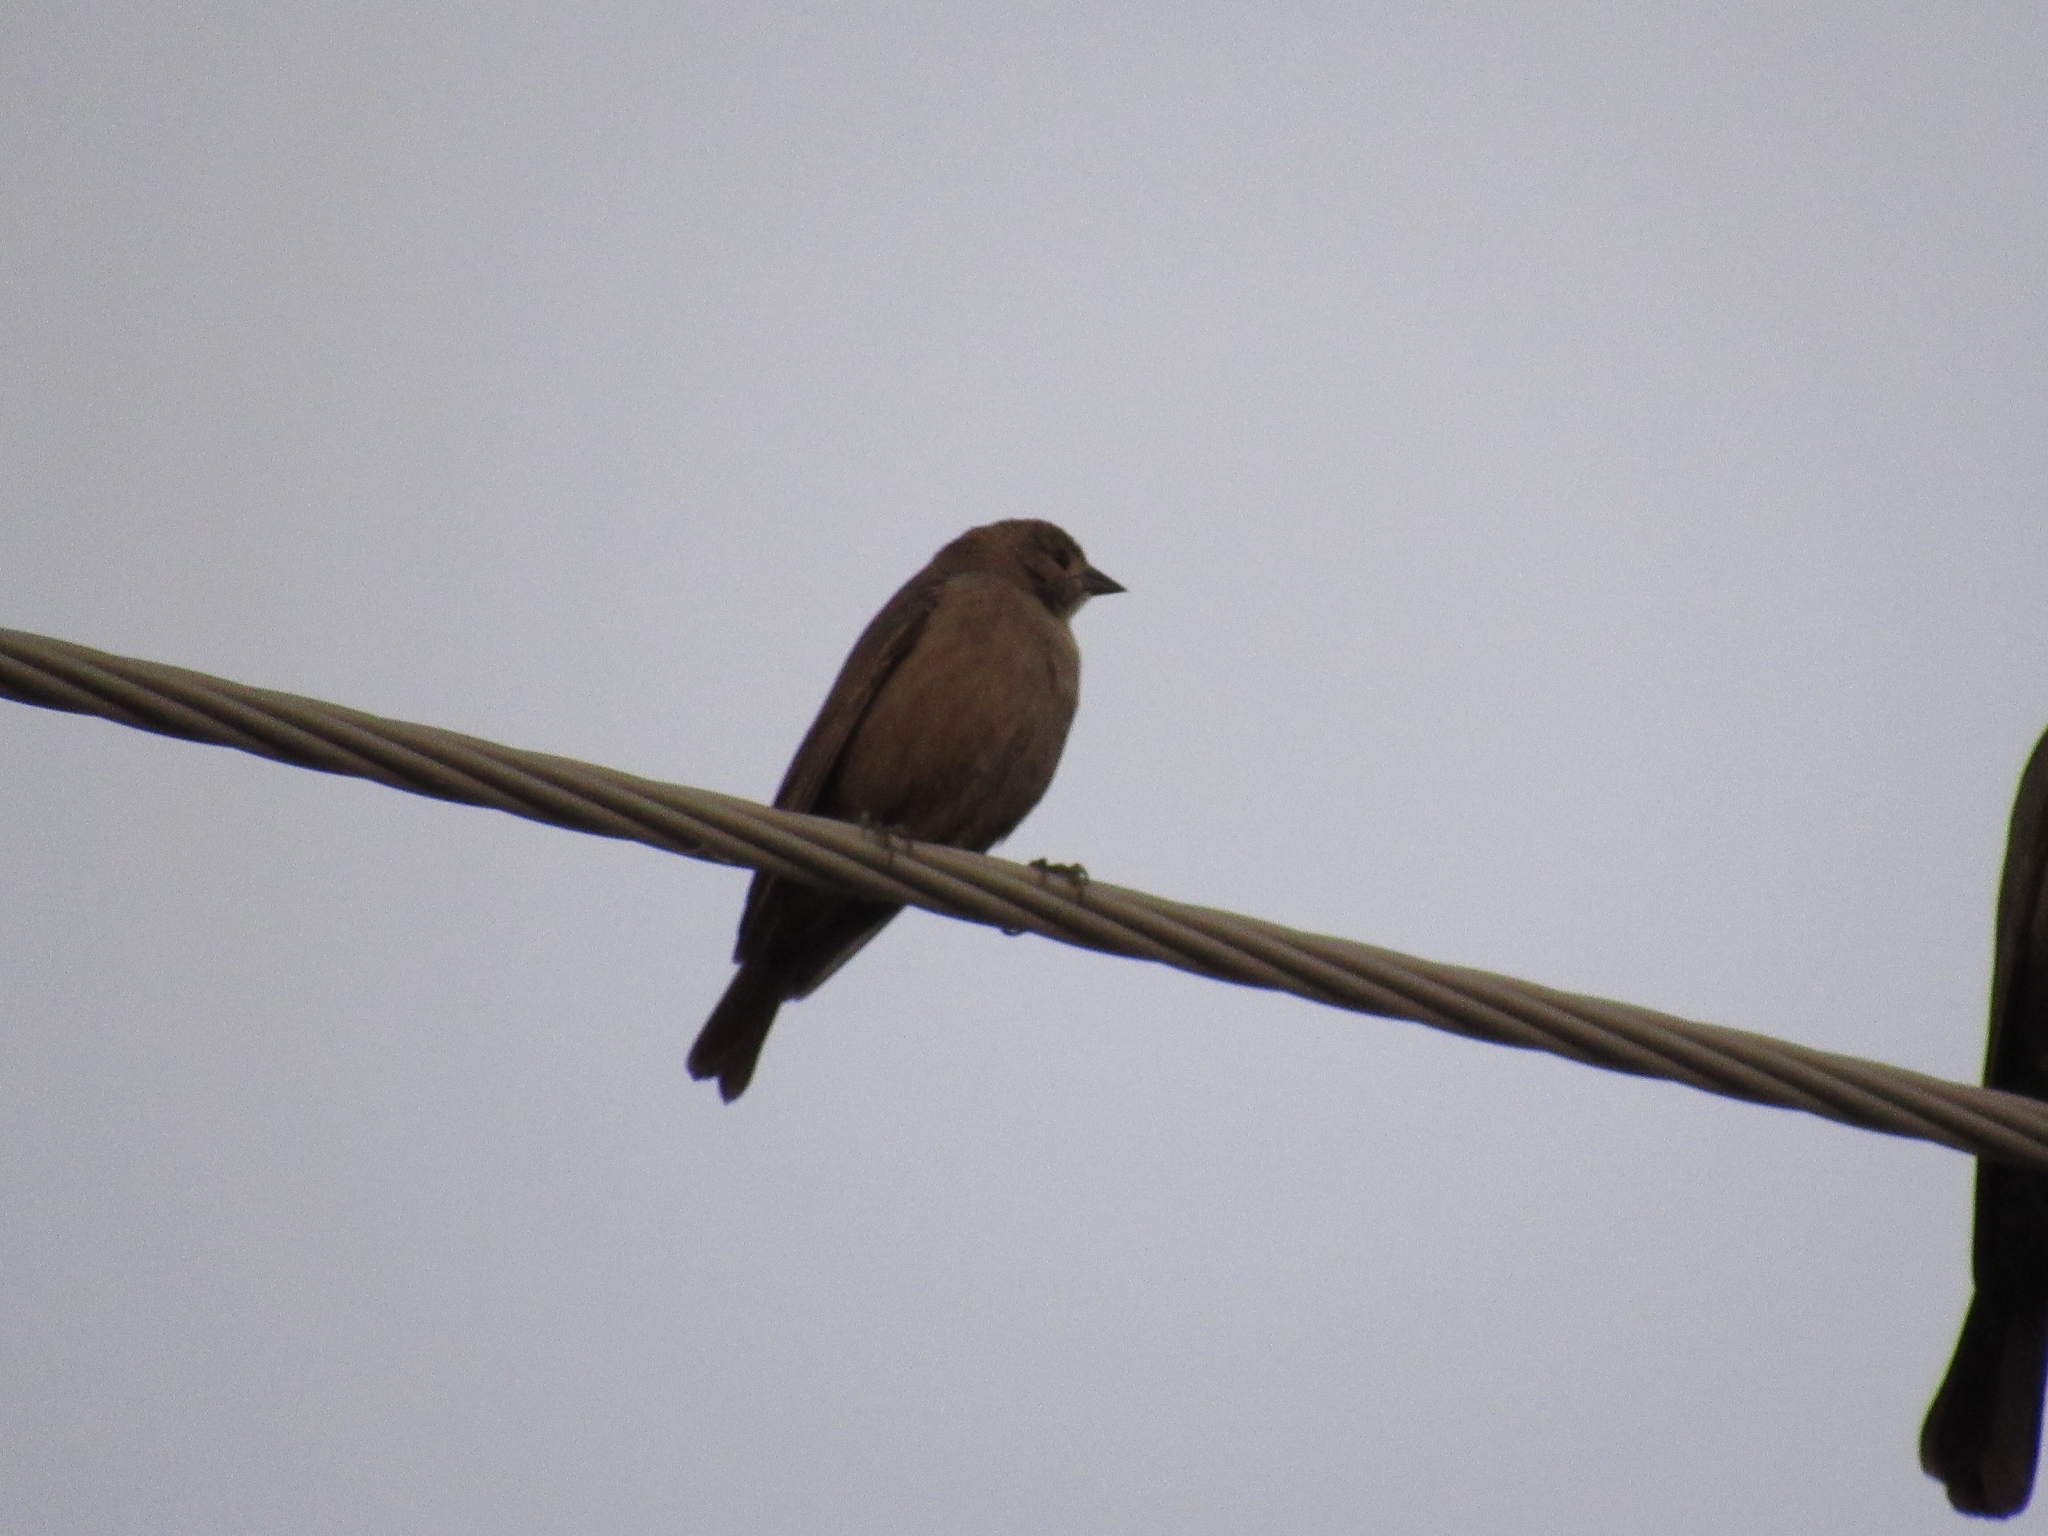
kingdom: Animalia
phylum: Chordata
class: Aves
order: Passeriformes
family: Icteridae
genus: Molothrus
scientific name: Molothrus ater
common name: Brown-headed cowbird
